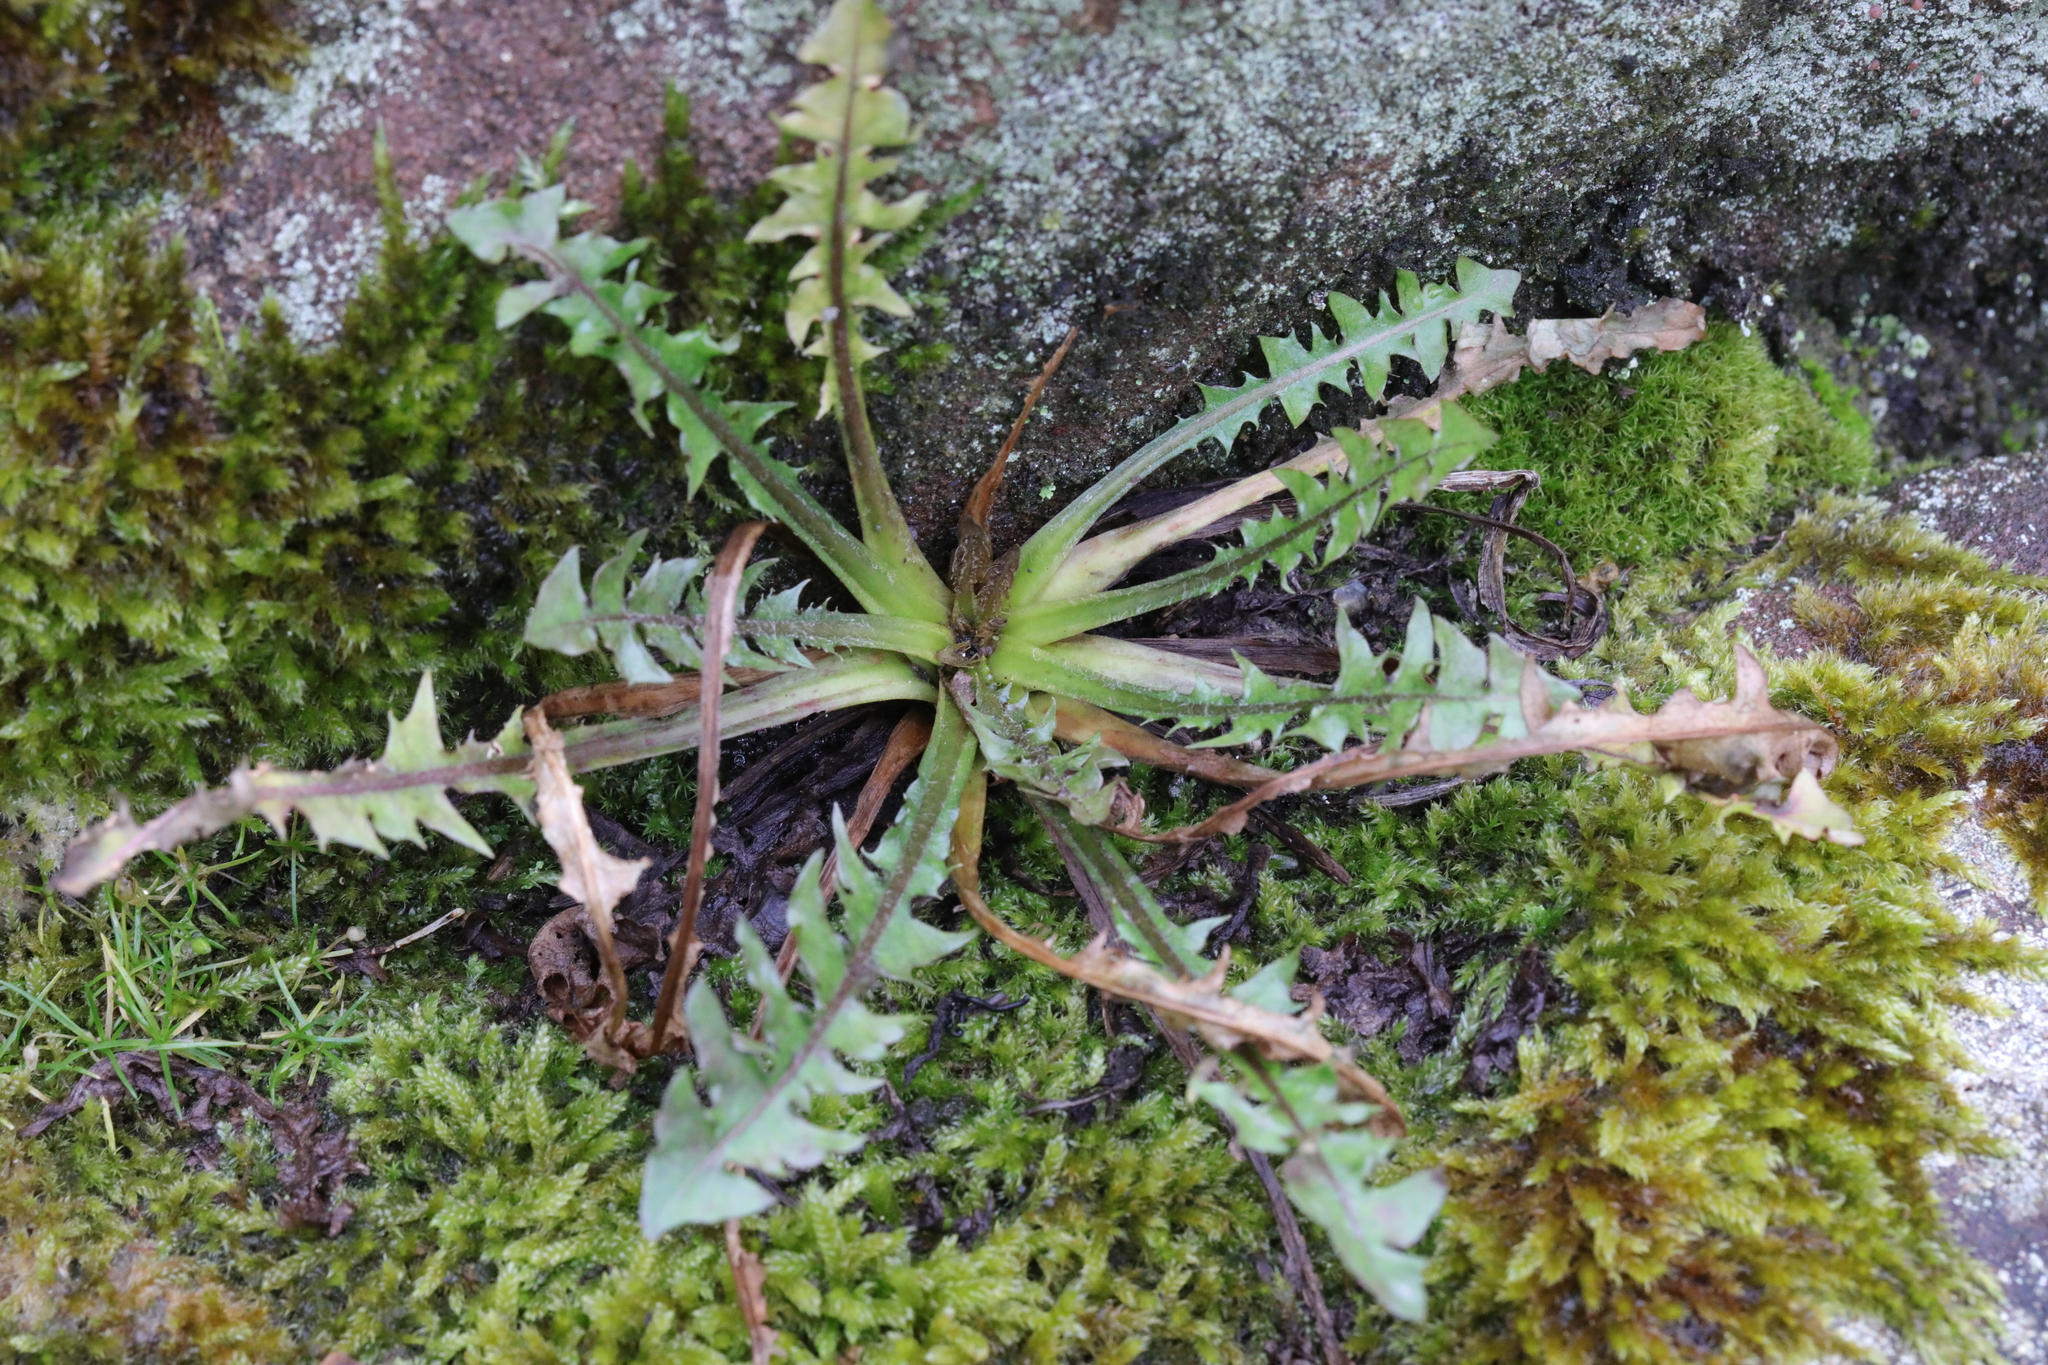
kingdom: Plantae
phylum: Tracheophyta
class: Magnoliopsida
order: Asterales
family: Asteraceae
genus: Taraxacum
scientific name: Taraxacum officinale
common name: Common dandelion
